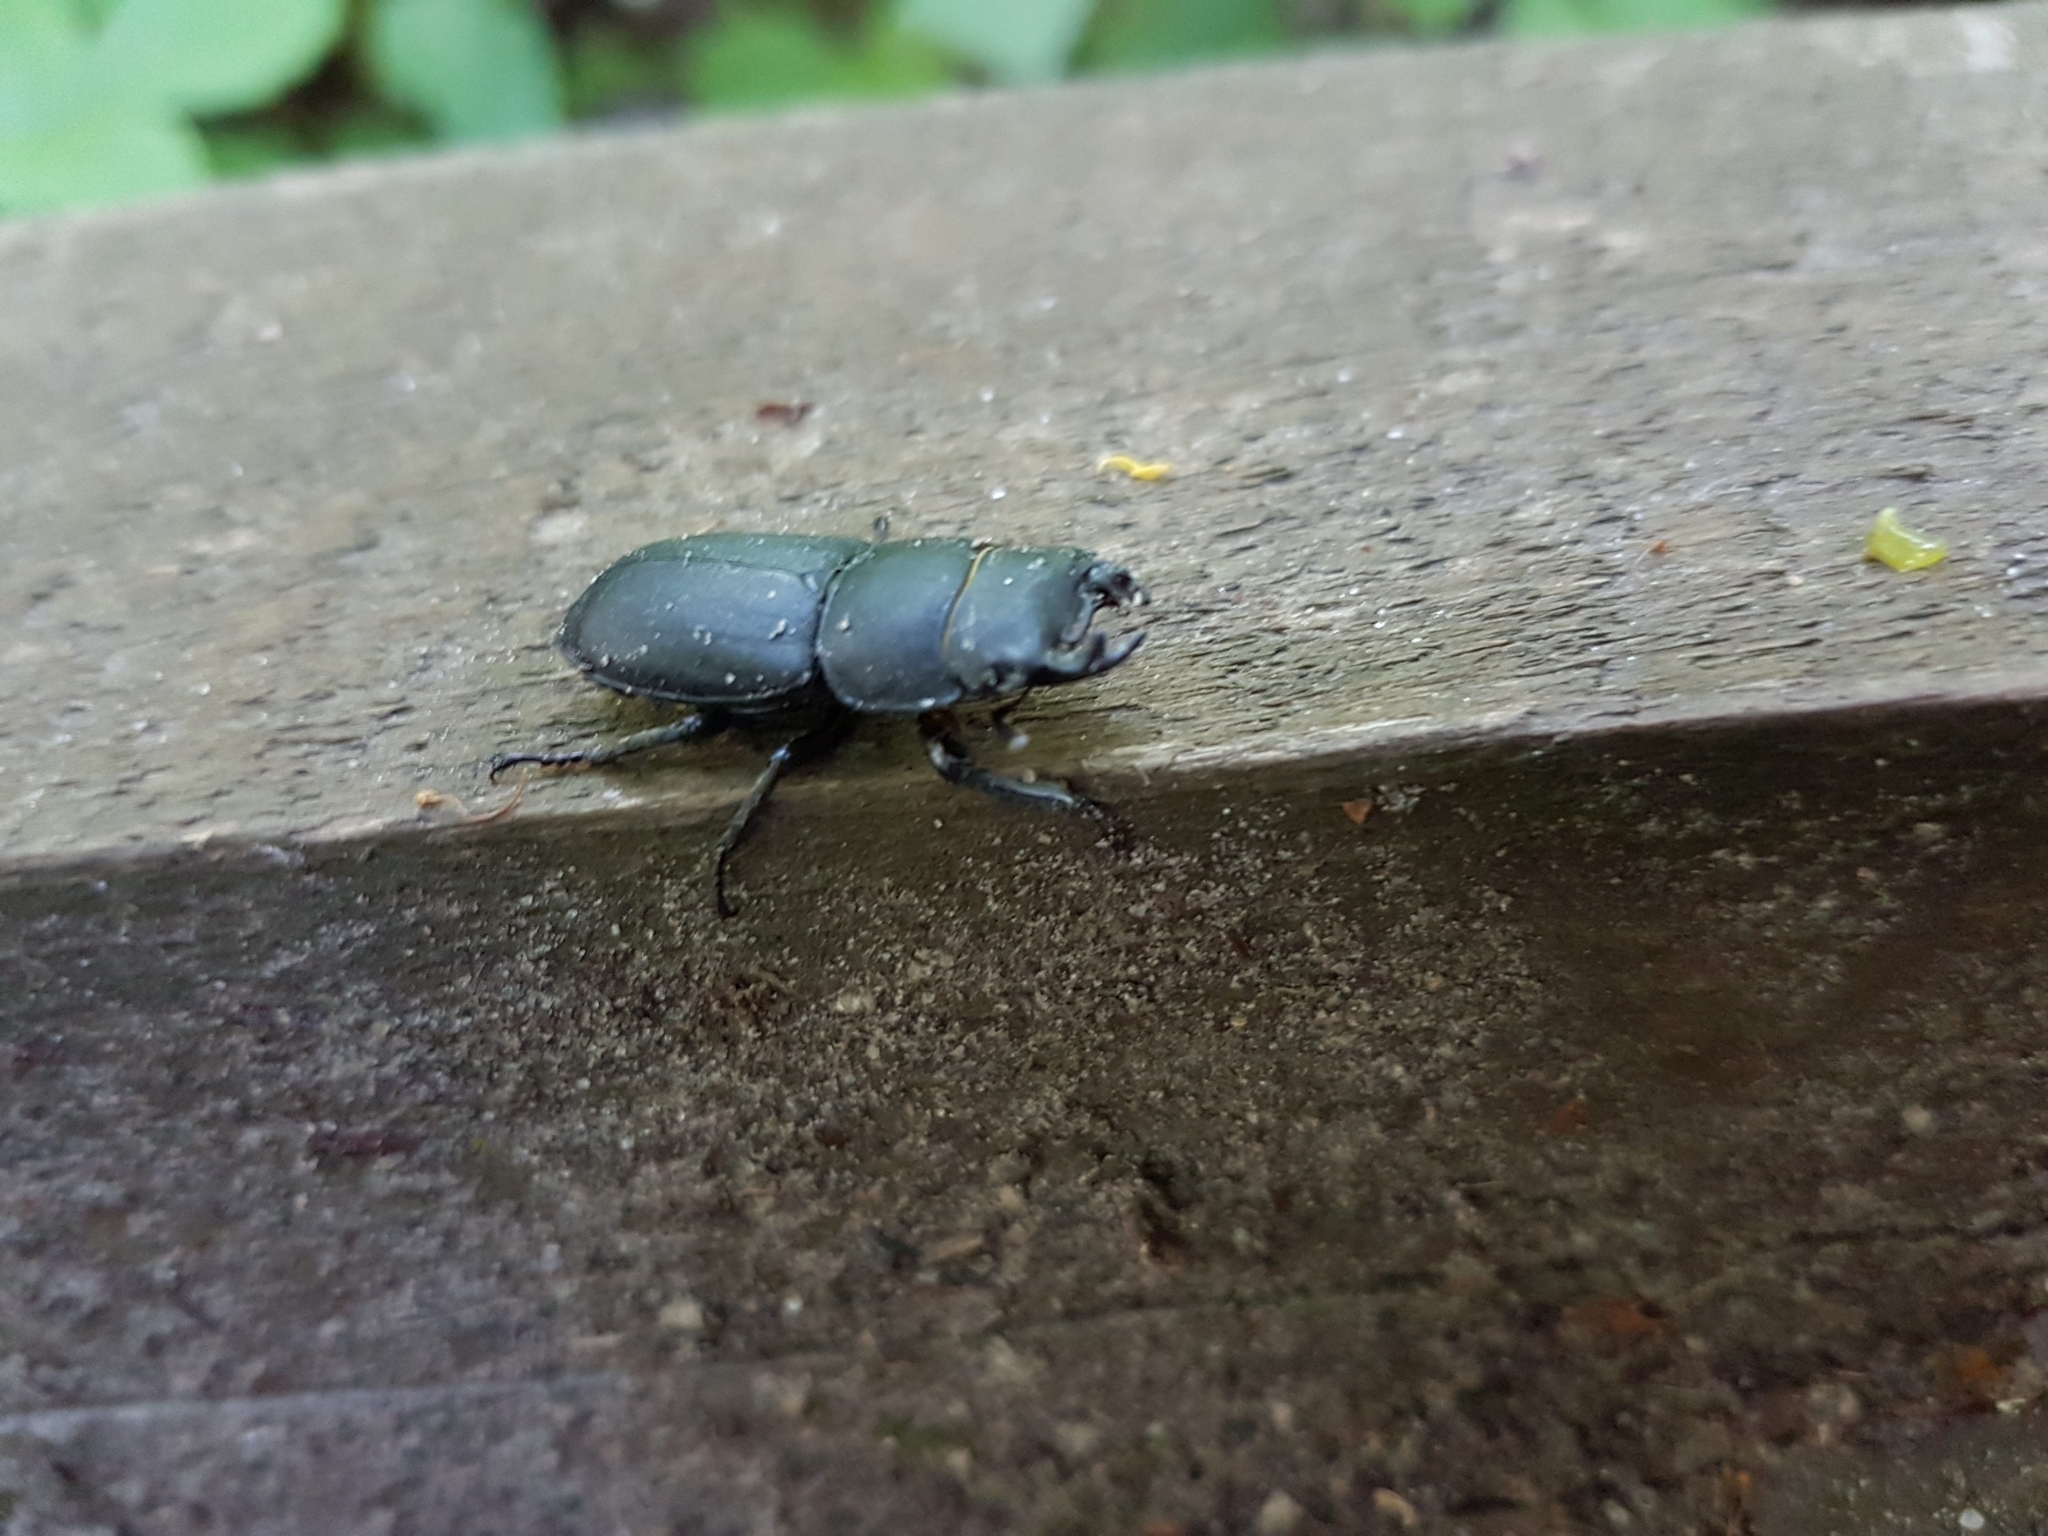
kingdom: Animalia
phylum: Arthropoda
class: Insecta
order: Coleoptera
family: Lucanidae
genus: Dorcus
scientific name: Dorcus parallelipipedus
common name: Lesser stag beetle
